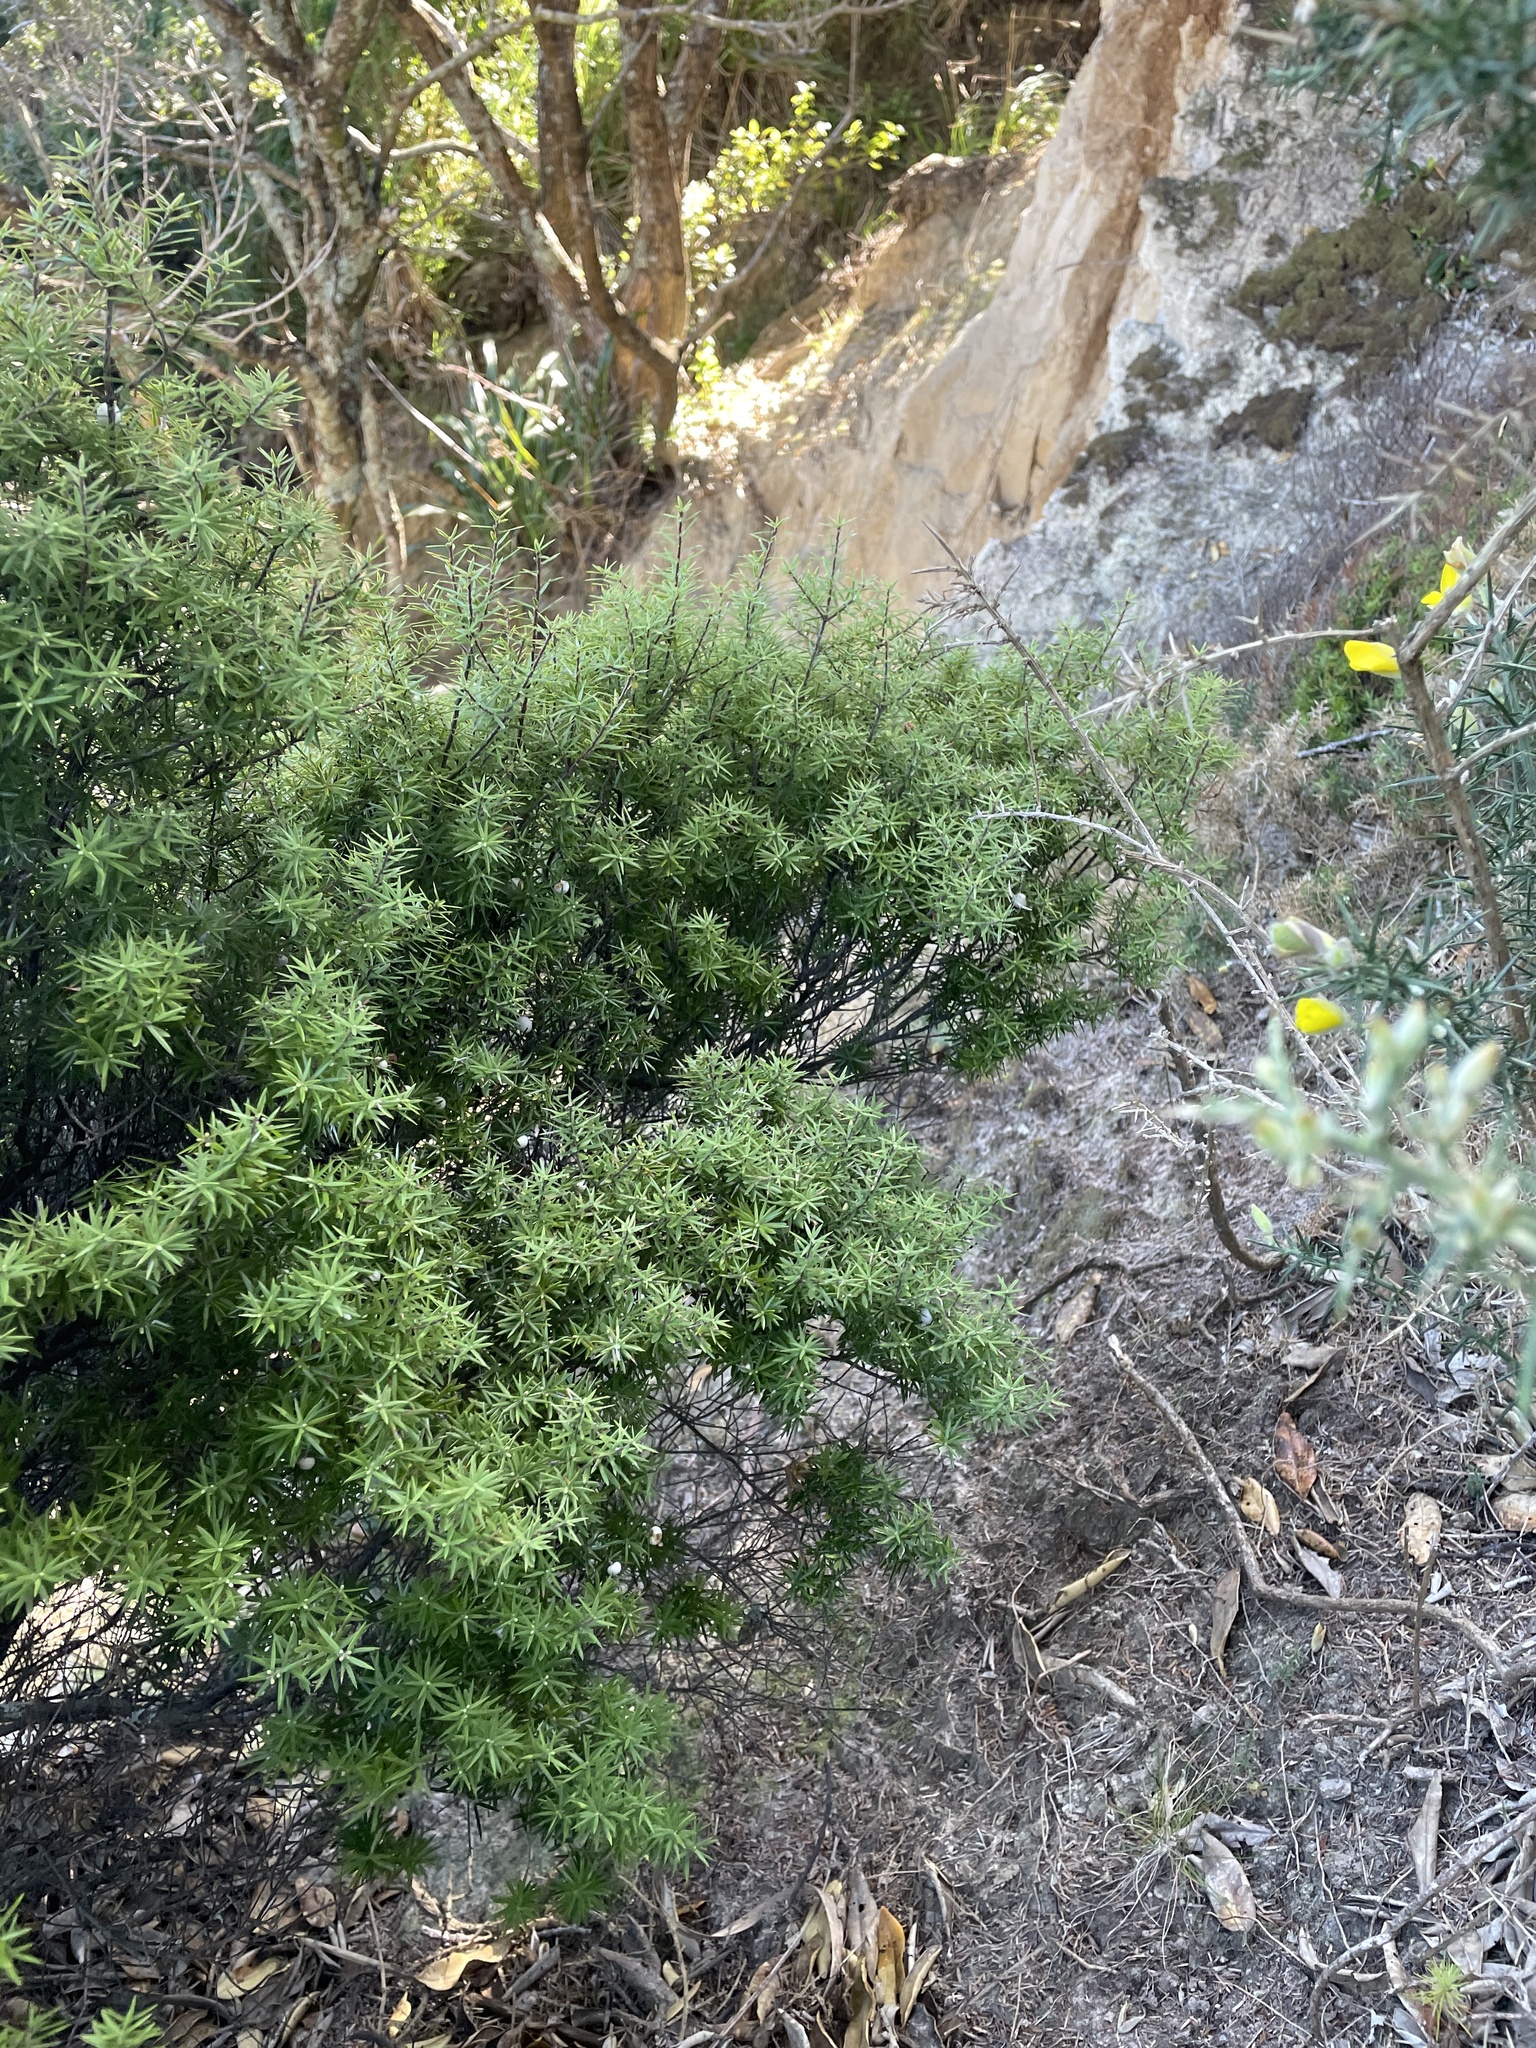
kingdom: Plantae
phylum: Tracheophyta
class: Magnoliopsida
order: Ericales
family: Ericaceae
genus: Leptecophylla
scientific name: Leptecophylla juniperina
